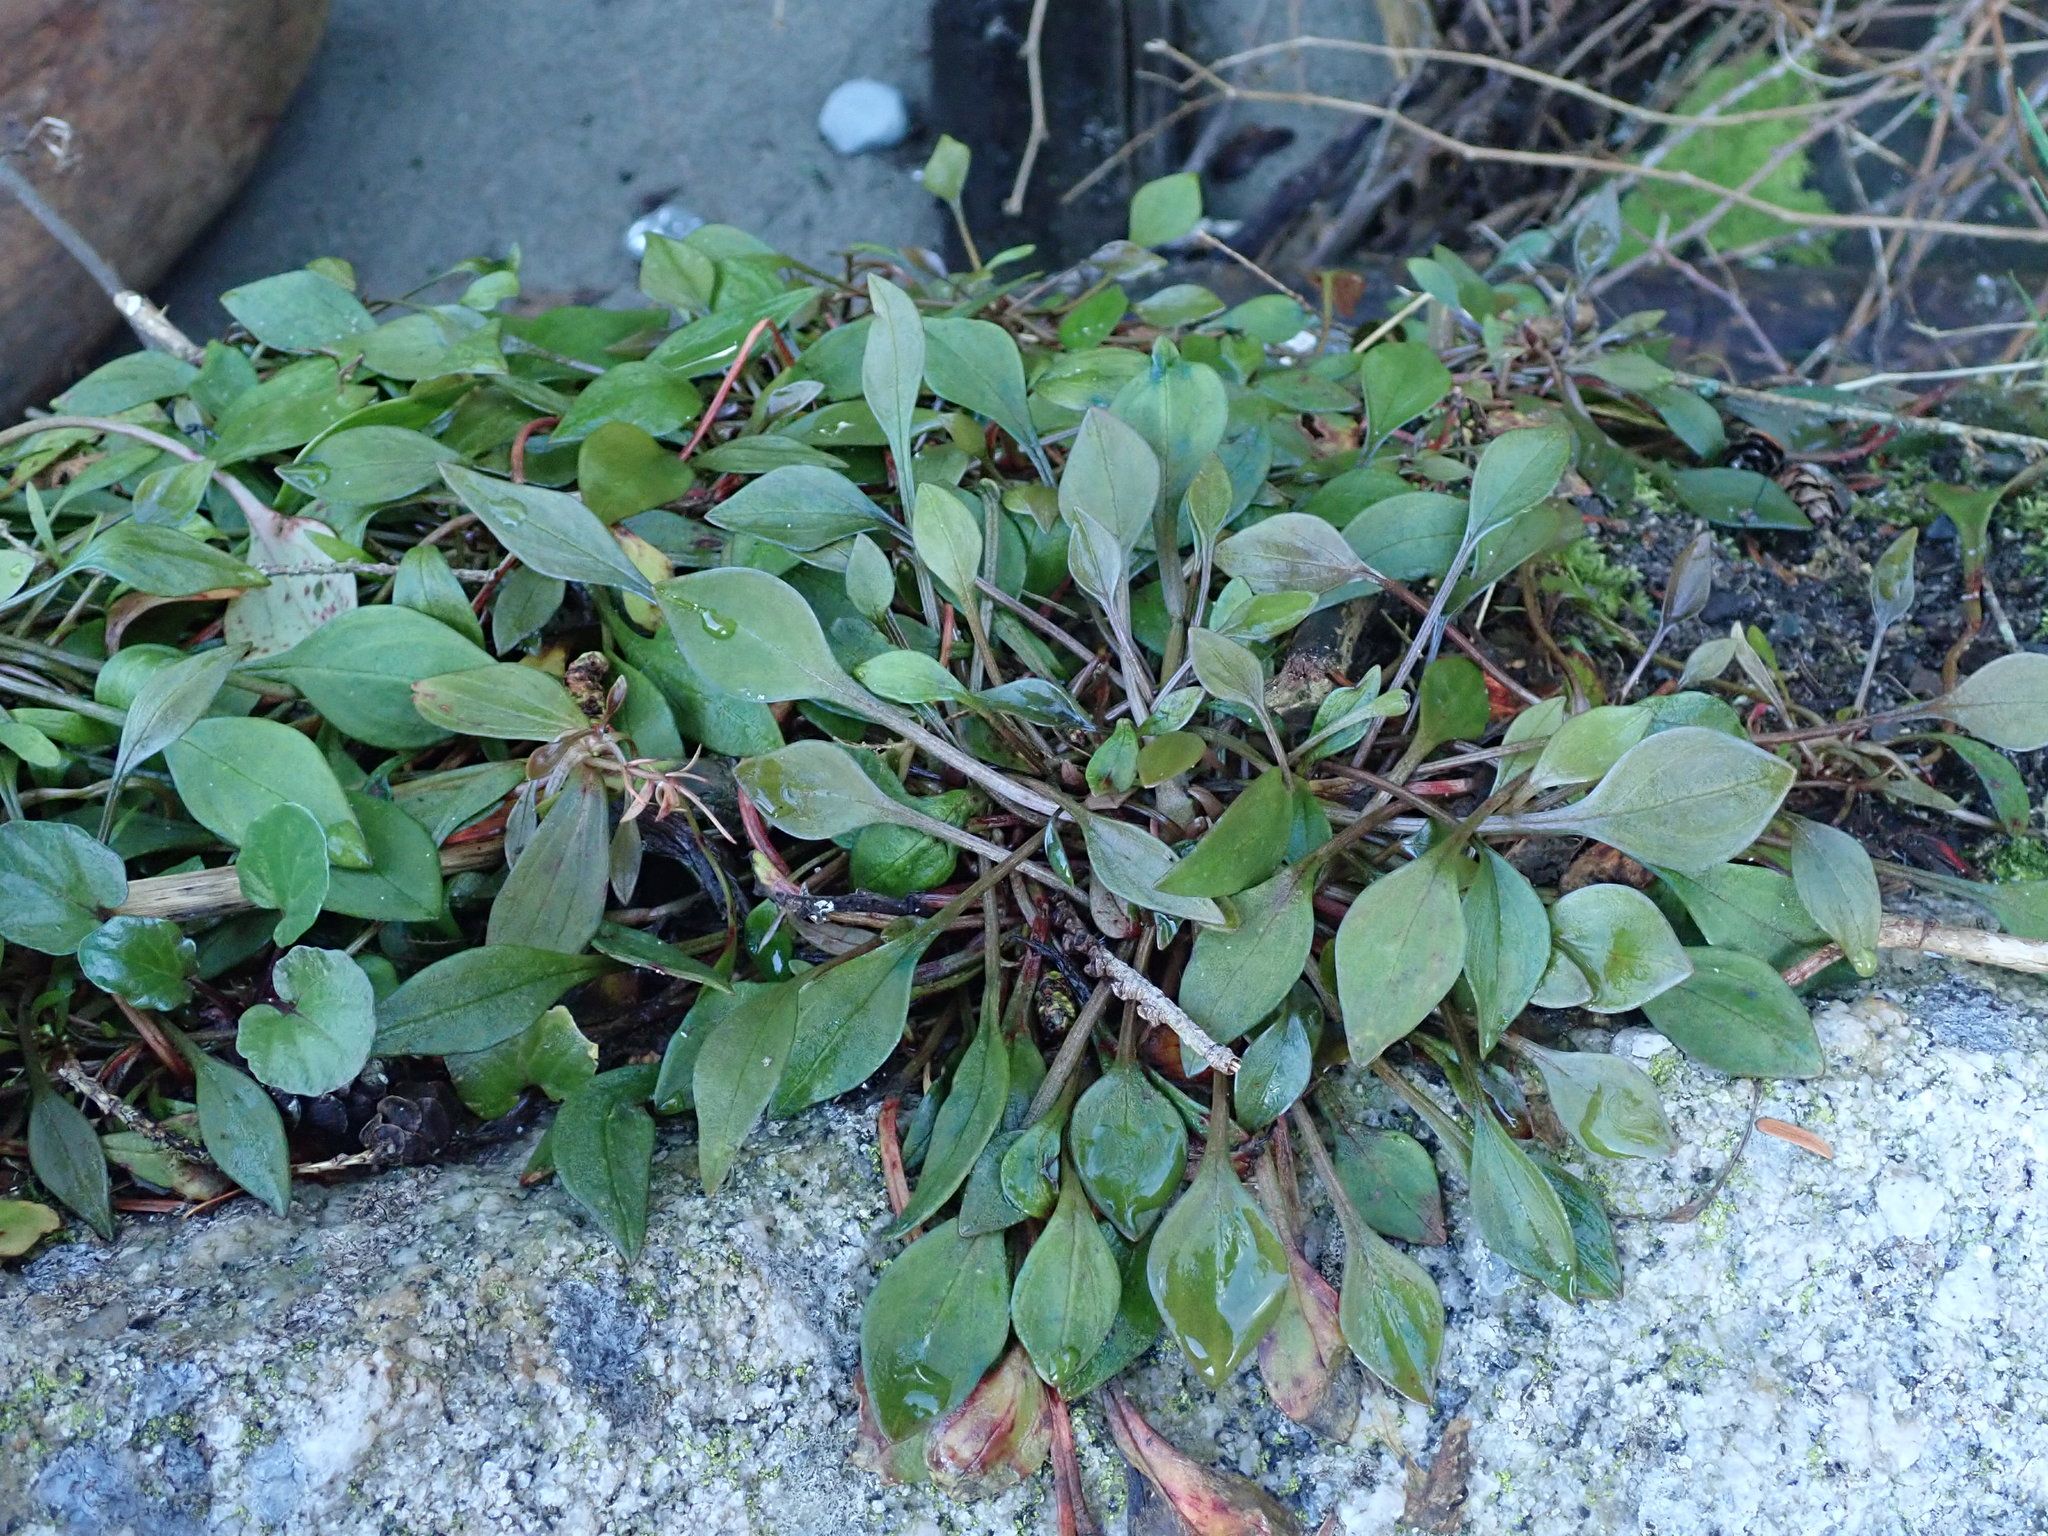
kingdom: Plantae
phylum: Tracheophyta
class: Magnoliopsida
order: Caryophyllales
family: Montiaceae
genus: Claytonia
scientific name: Claytonia sibirica
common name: Pink purslane
